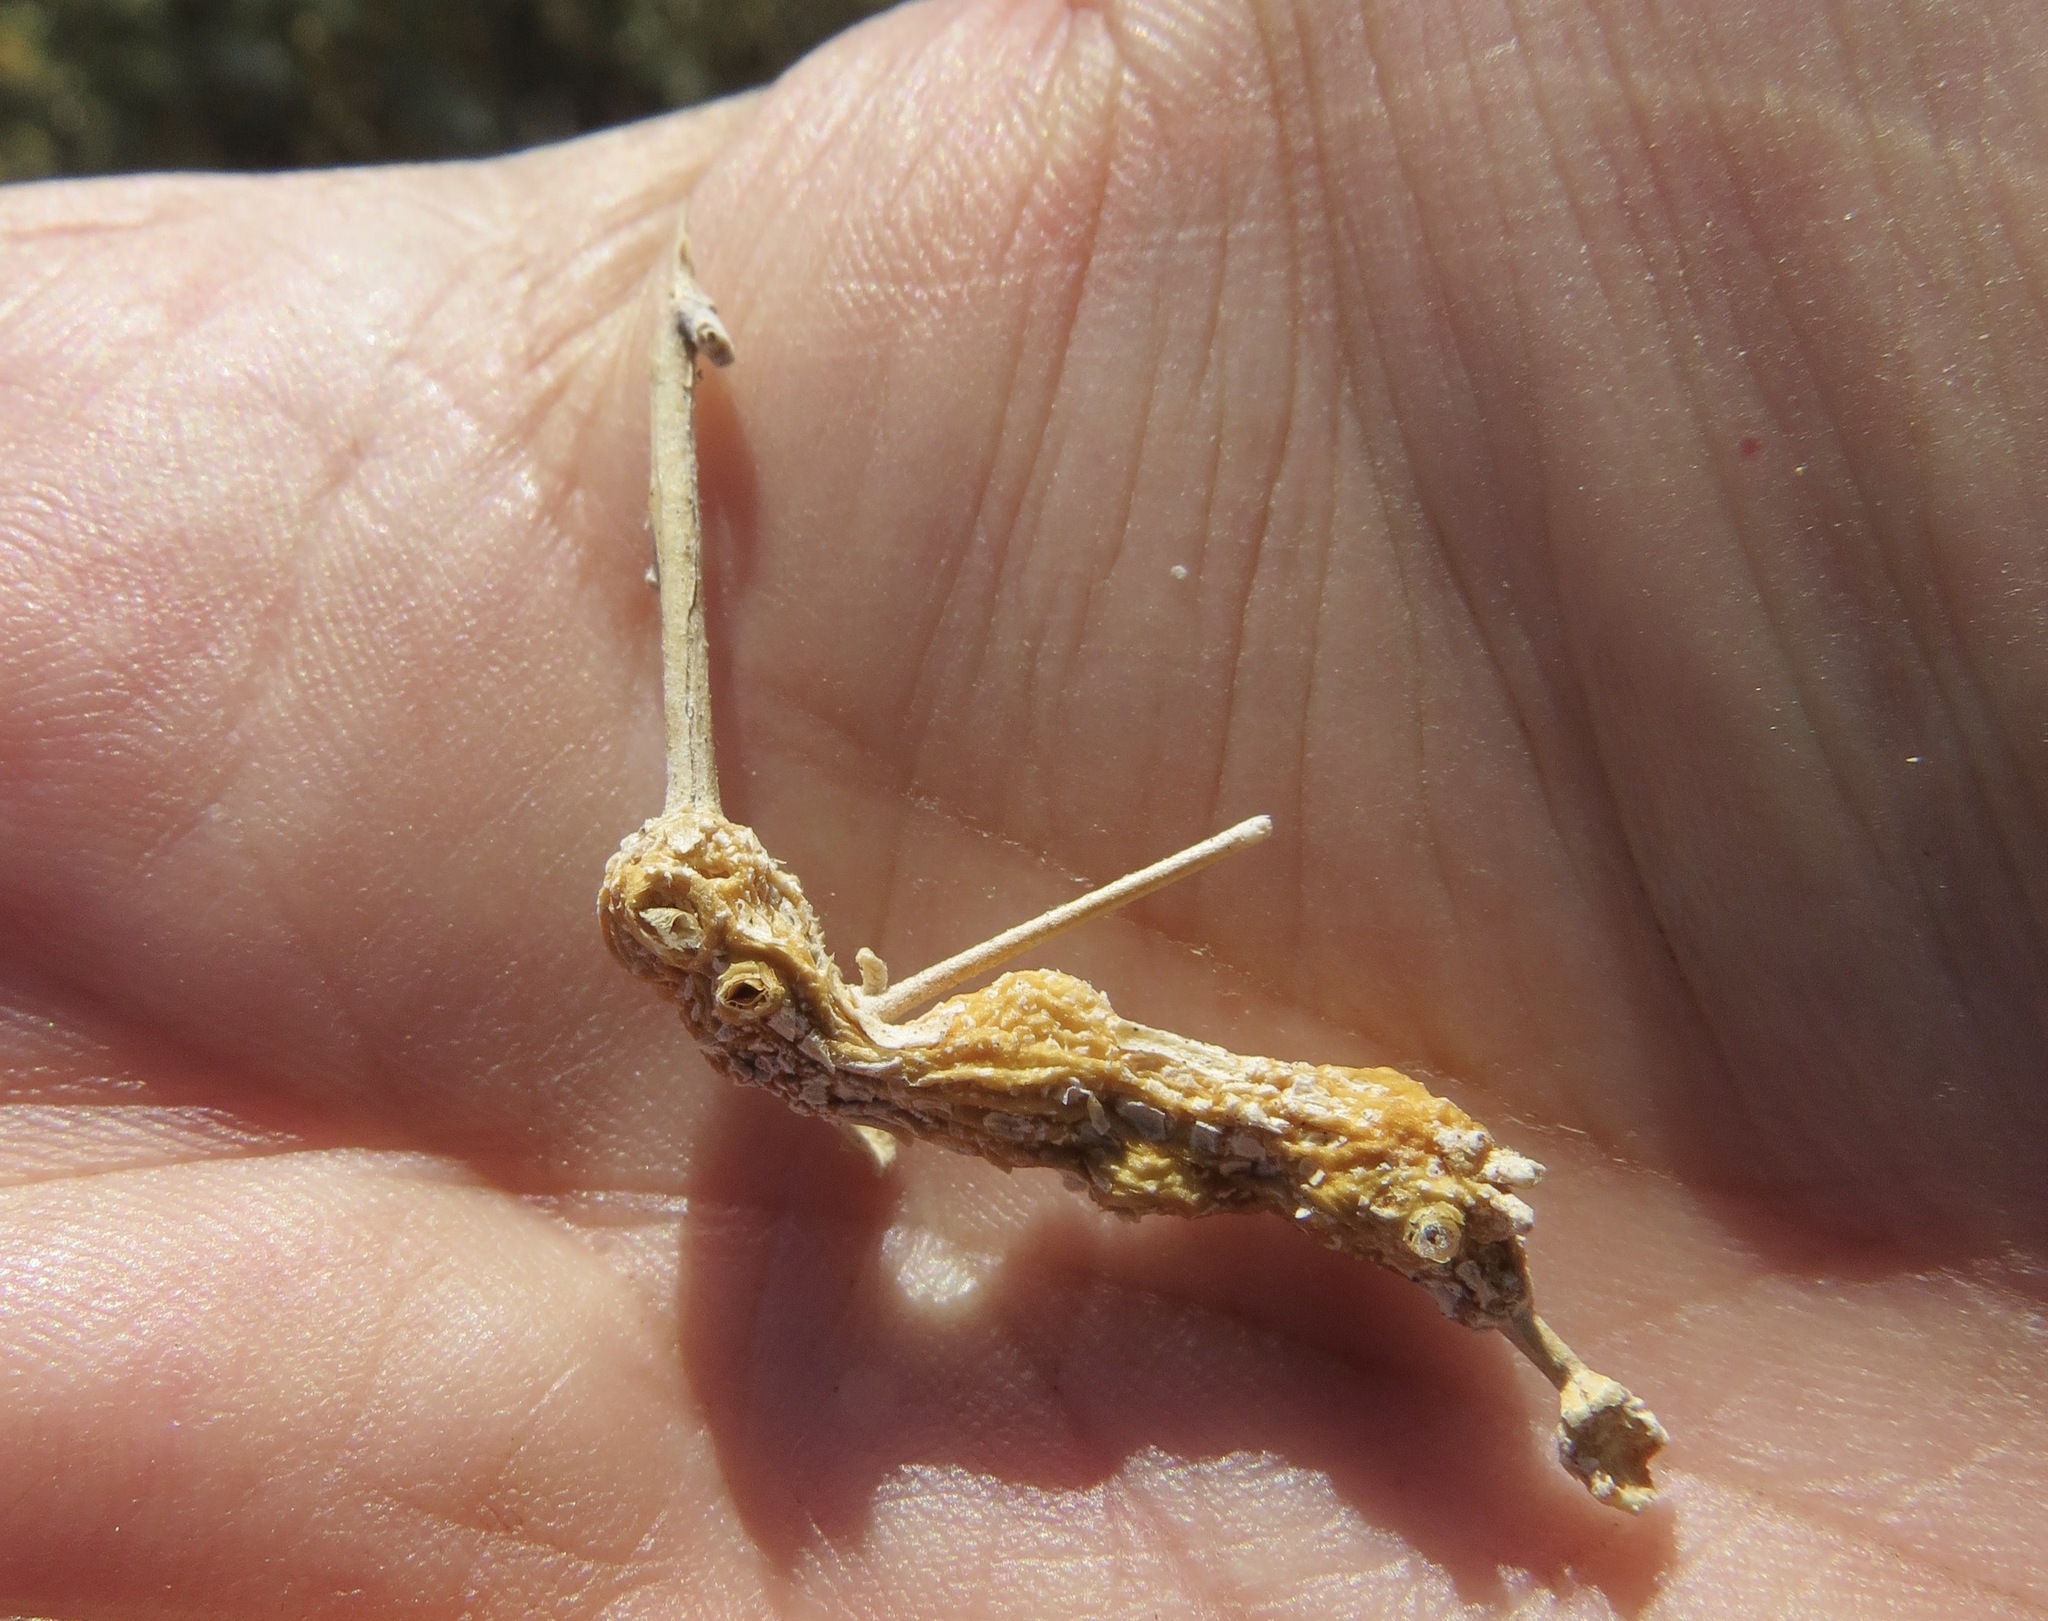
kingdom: Animalia
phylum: Arthropoda
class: Insecta
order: Diptera
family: Cecidomyiidae
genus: Asphondylia
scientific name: Asphondylia atriplicis
